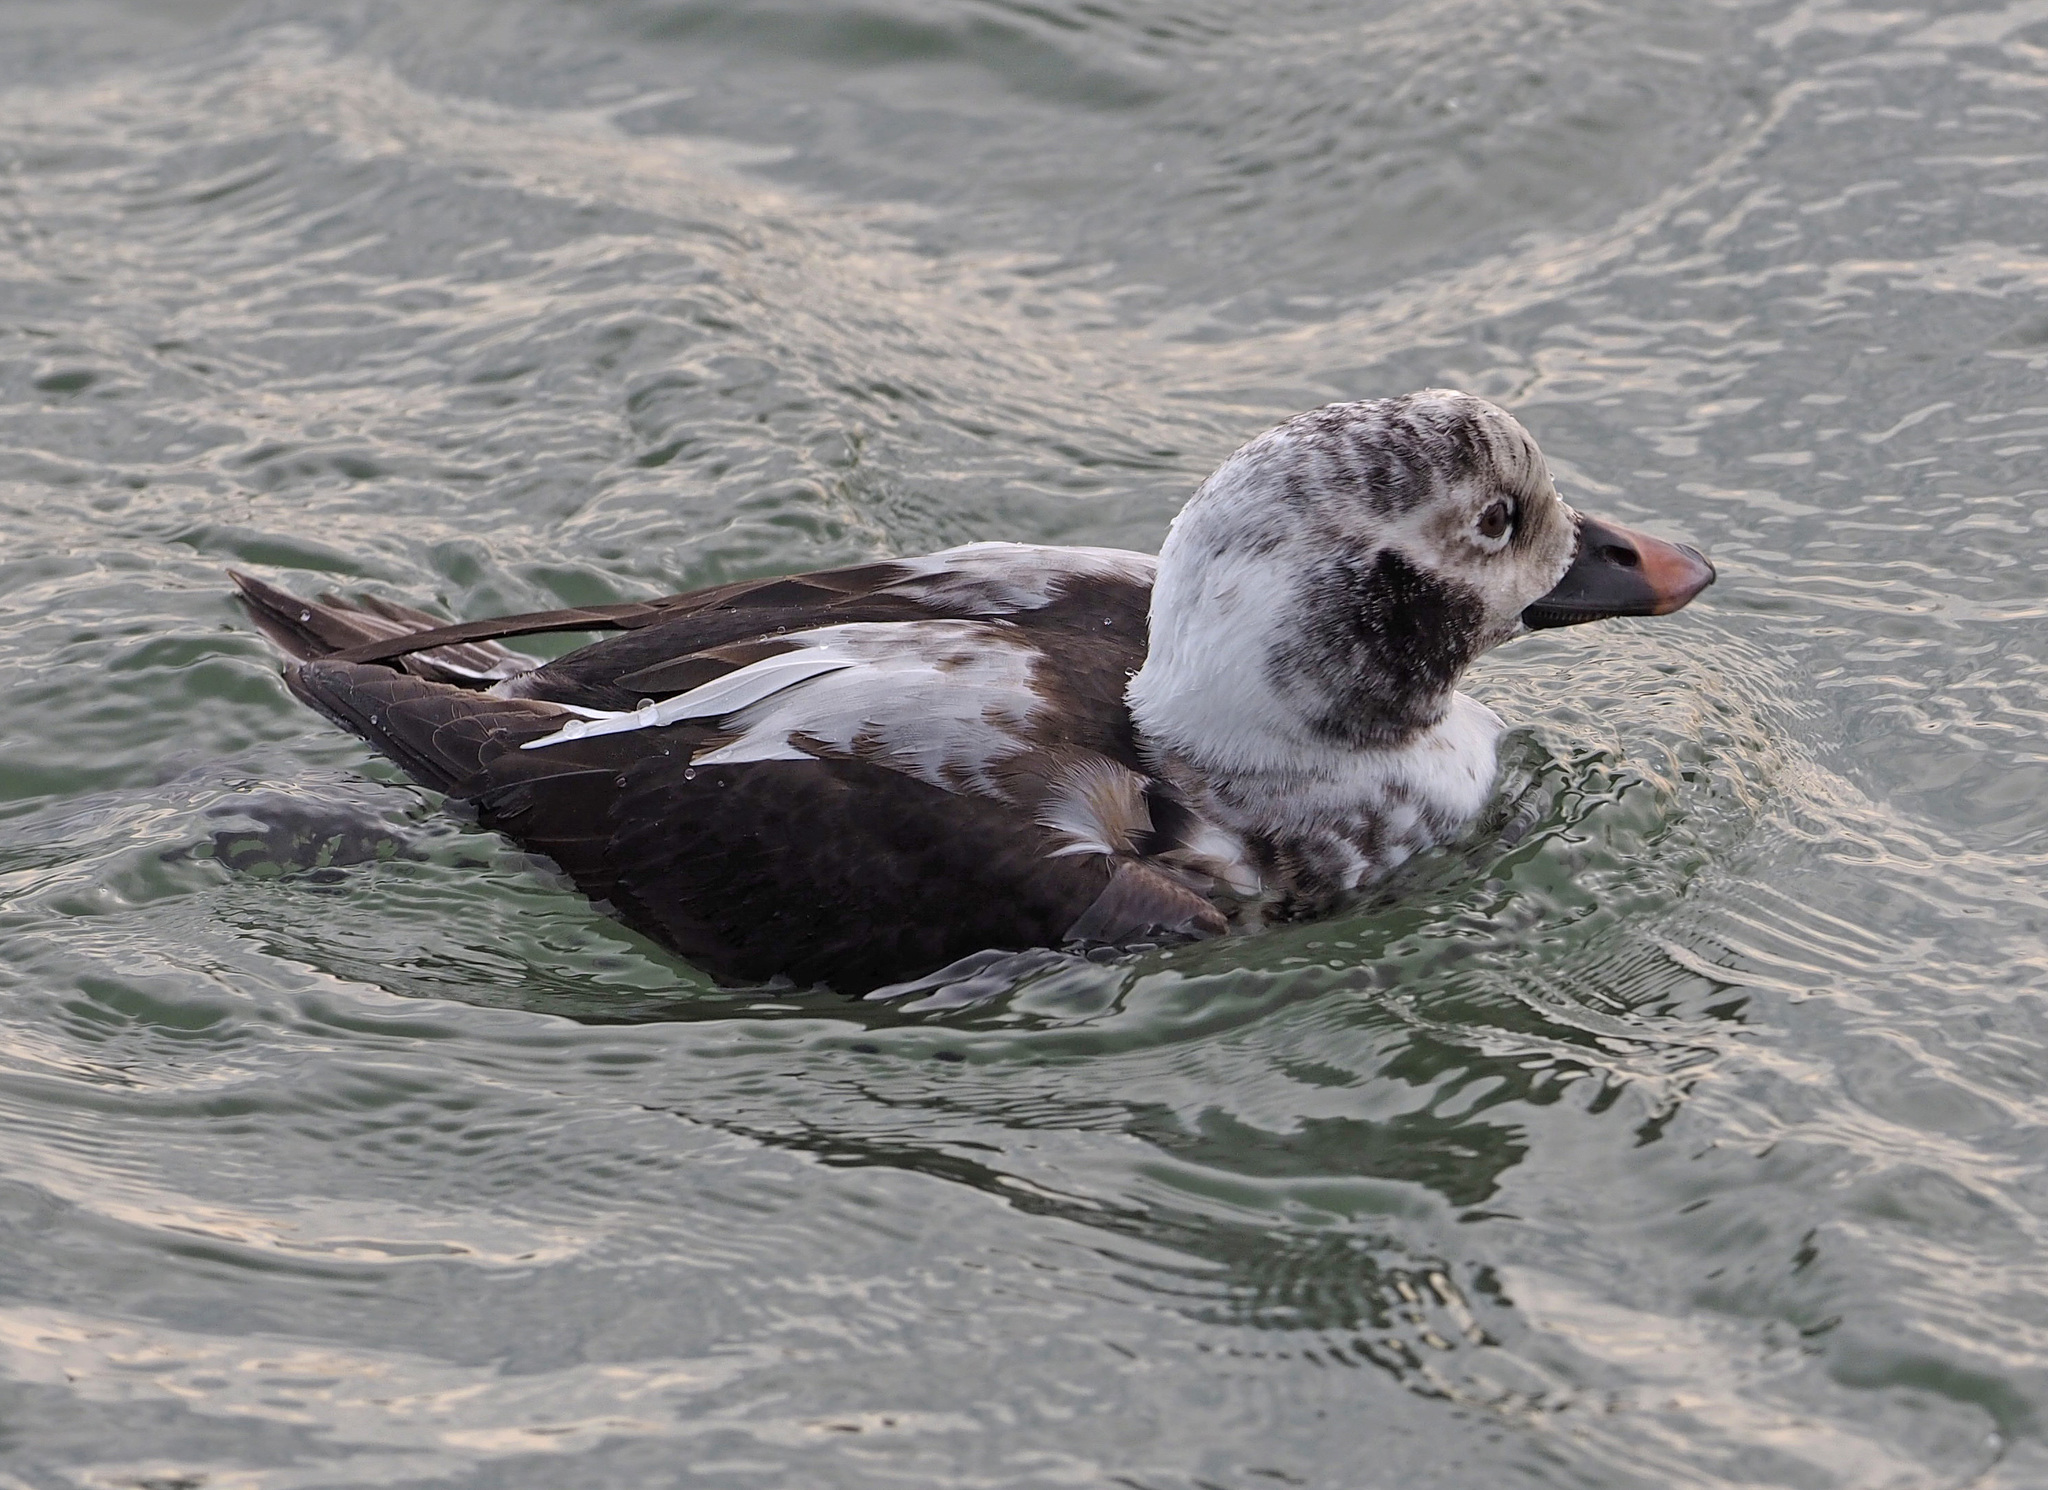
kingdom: Animalia
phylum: Chordata
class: Aves
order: Anseriformes
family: Anatidae
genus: Clangula
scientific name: Clangula hyemalis
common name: Long-tailed duck
